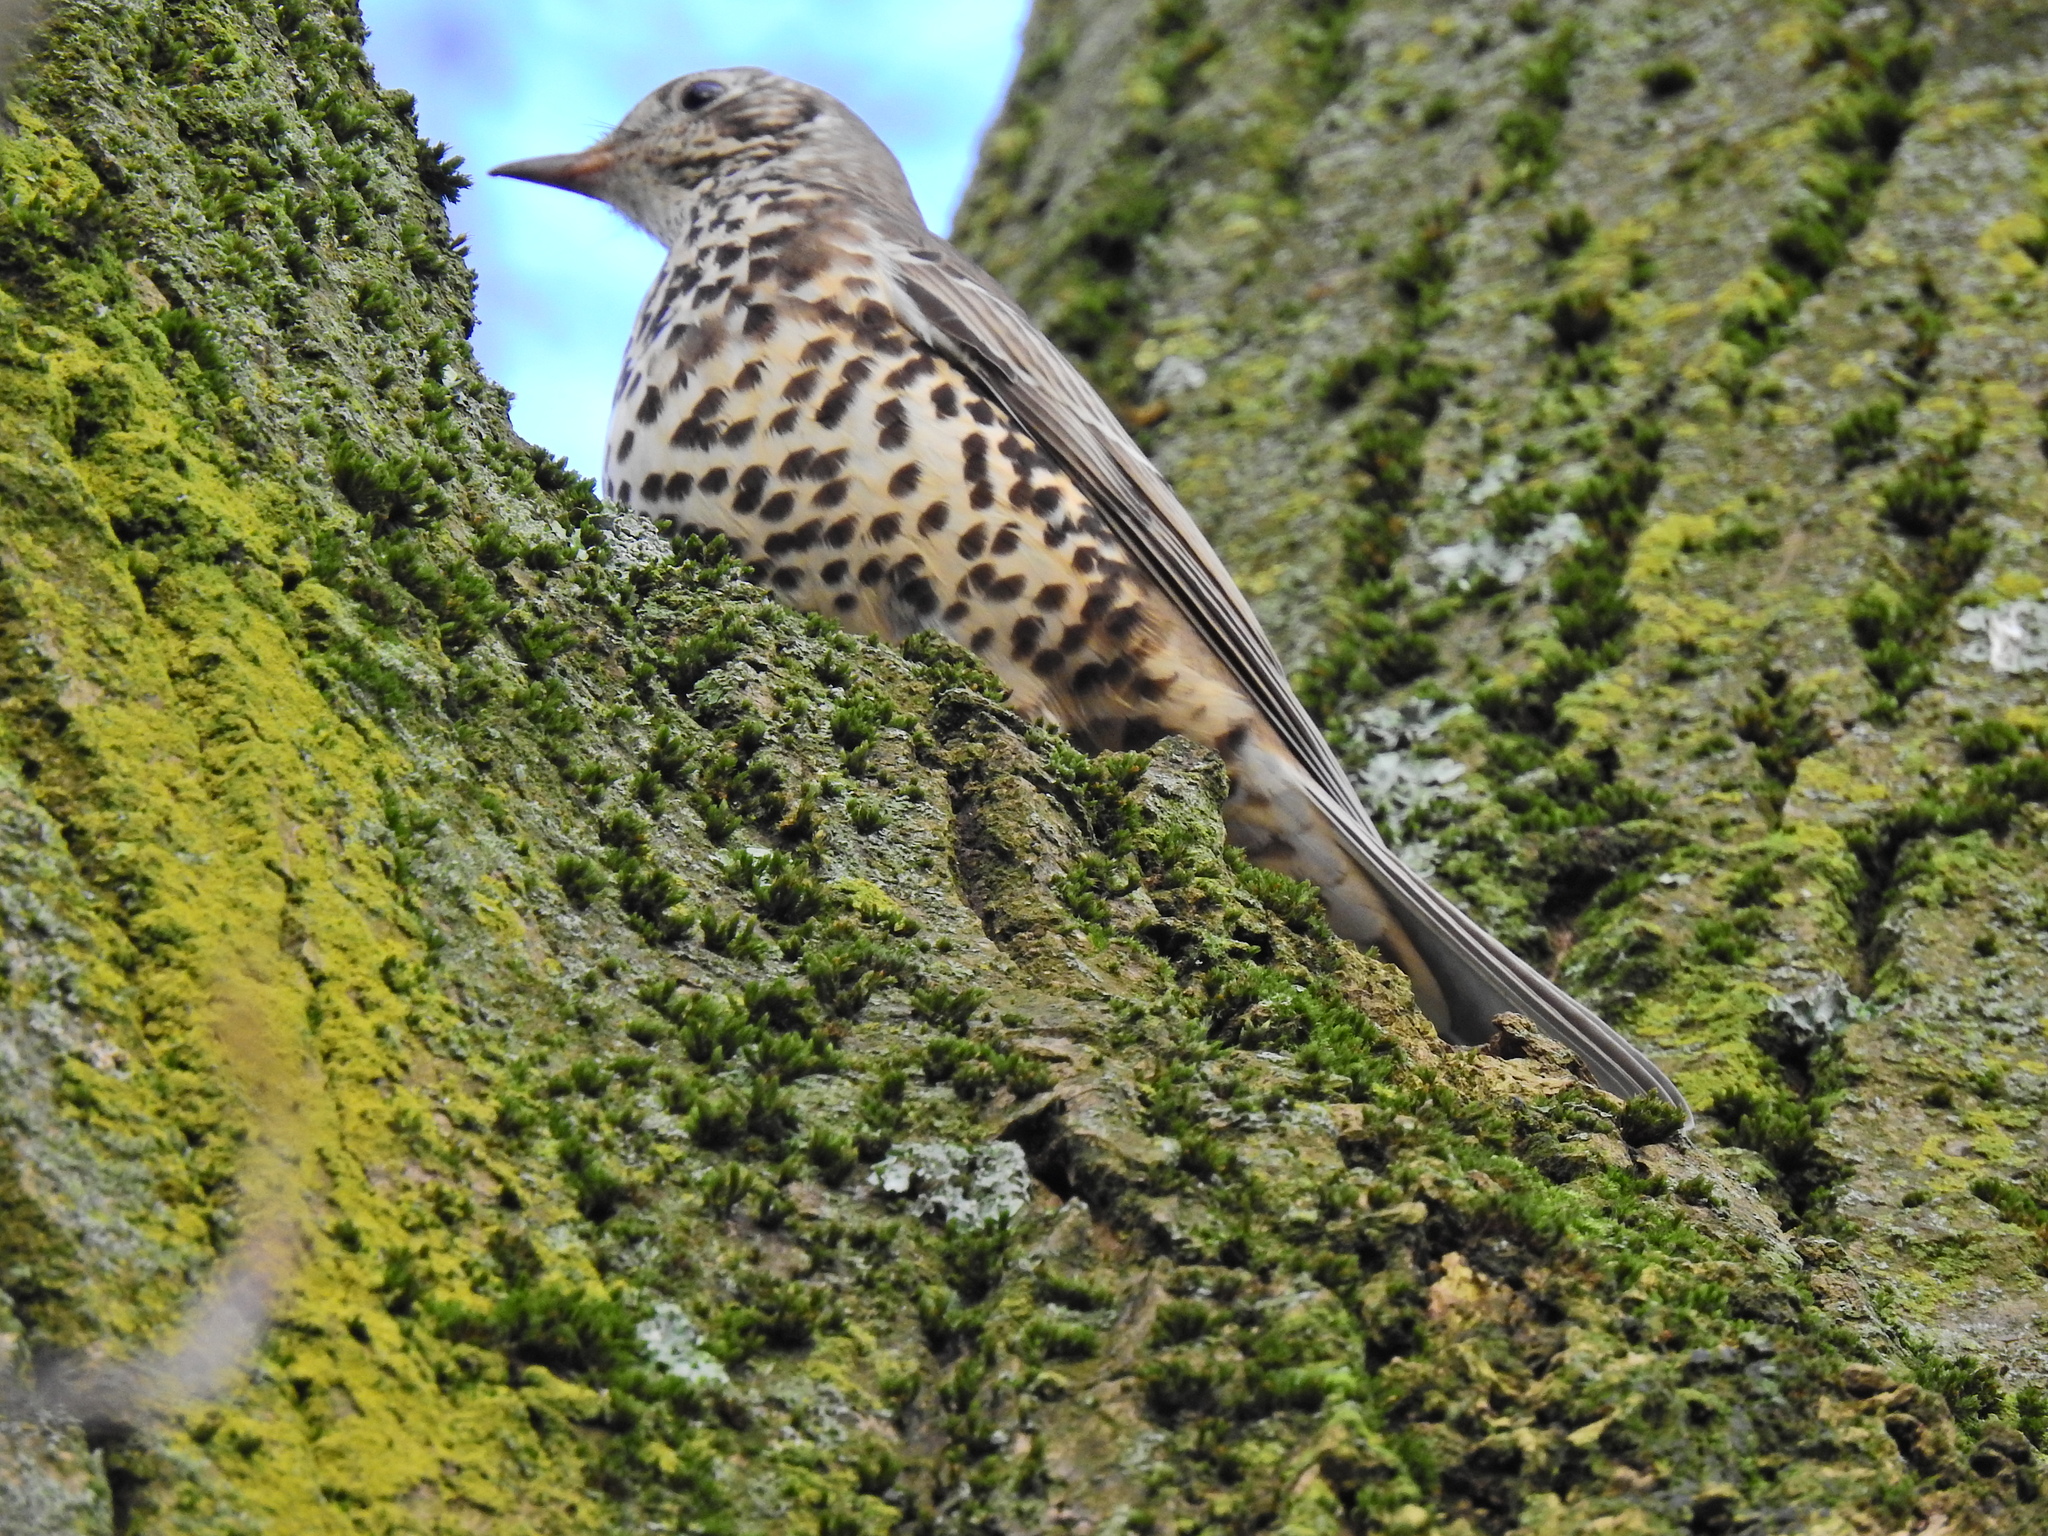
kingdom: Animalia
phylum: Chordata
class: Aves
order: Passeriformes
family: Turdidae
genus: Turdus
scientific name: Turdus viscivorus
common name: Mistle thrush
